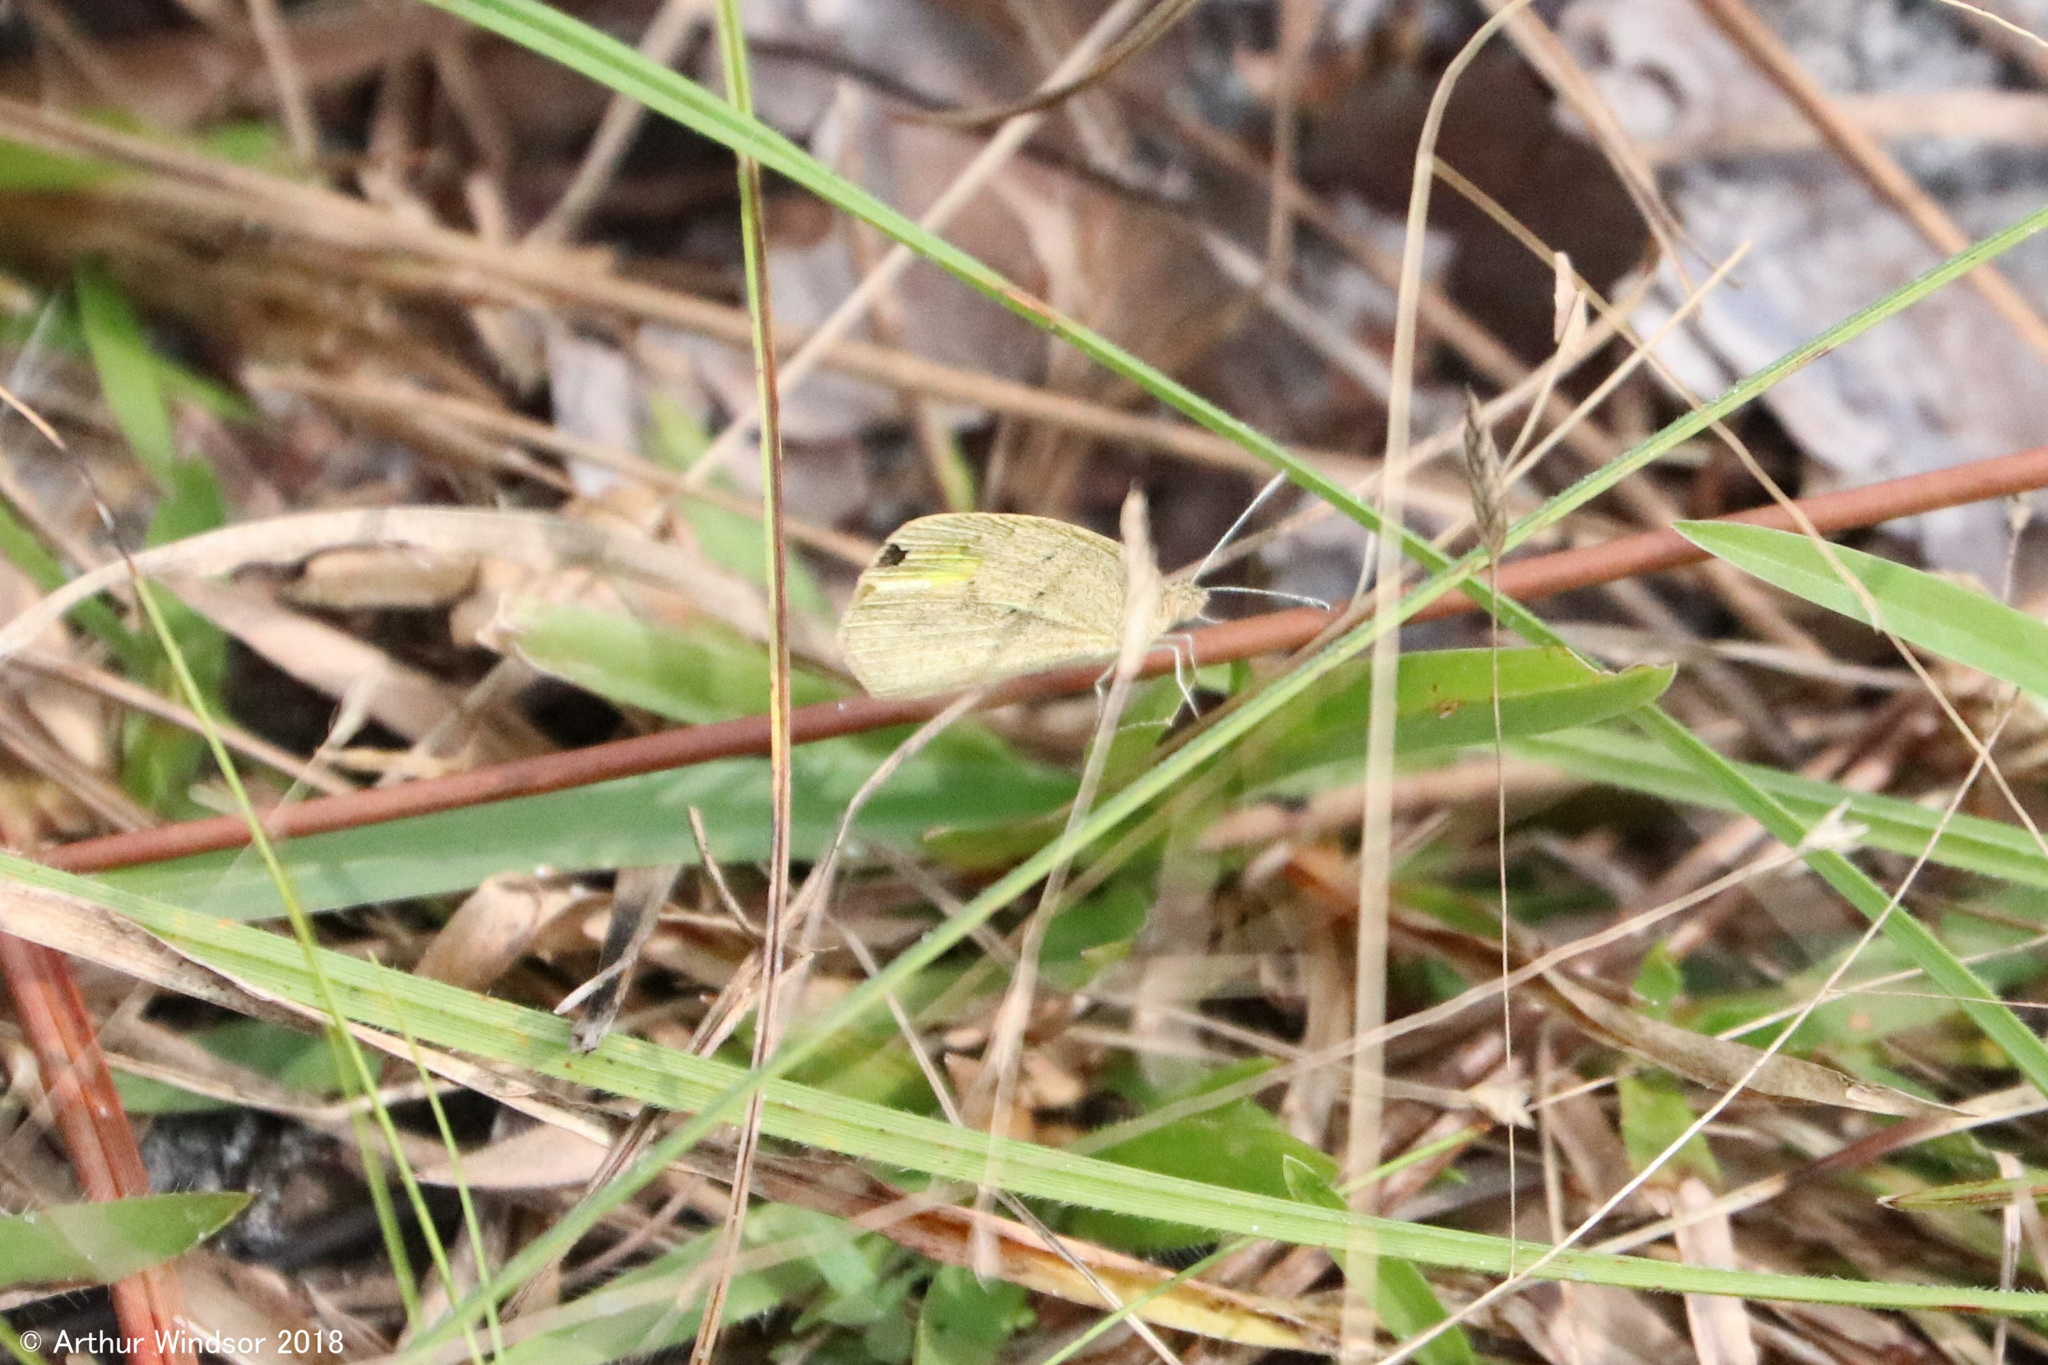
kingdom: Animalia
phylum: Arthropoda
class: Insecta
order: Lepidoptera
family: Pieridae
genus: Eurema
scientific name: Eurema daira
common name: Barred sulphur
